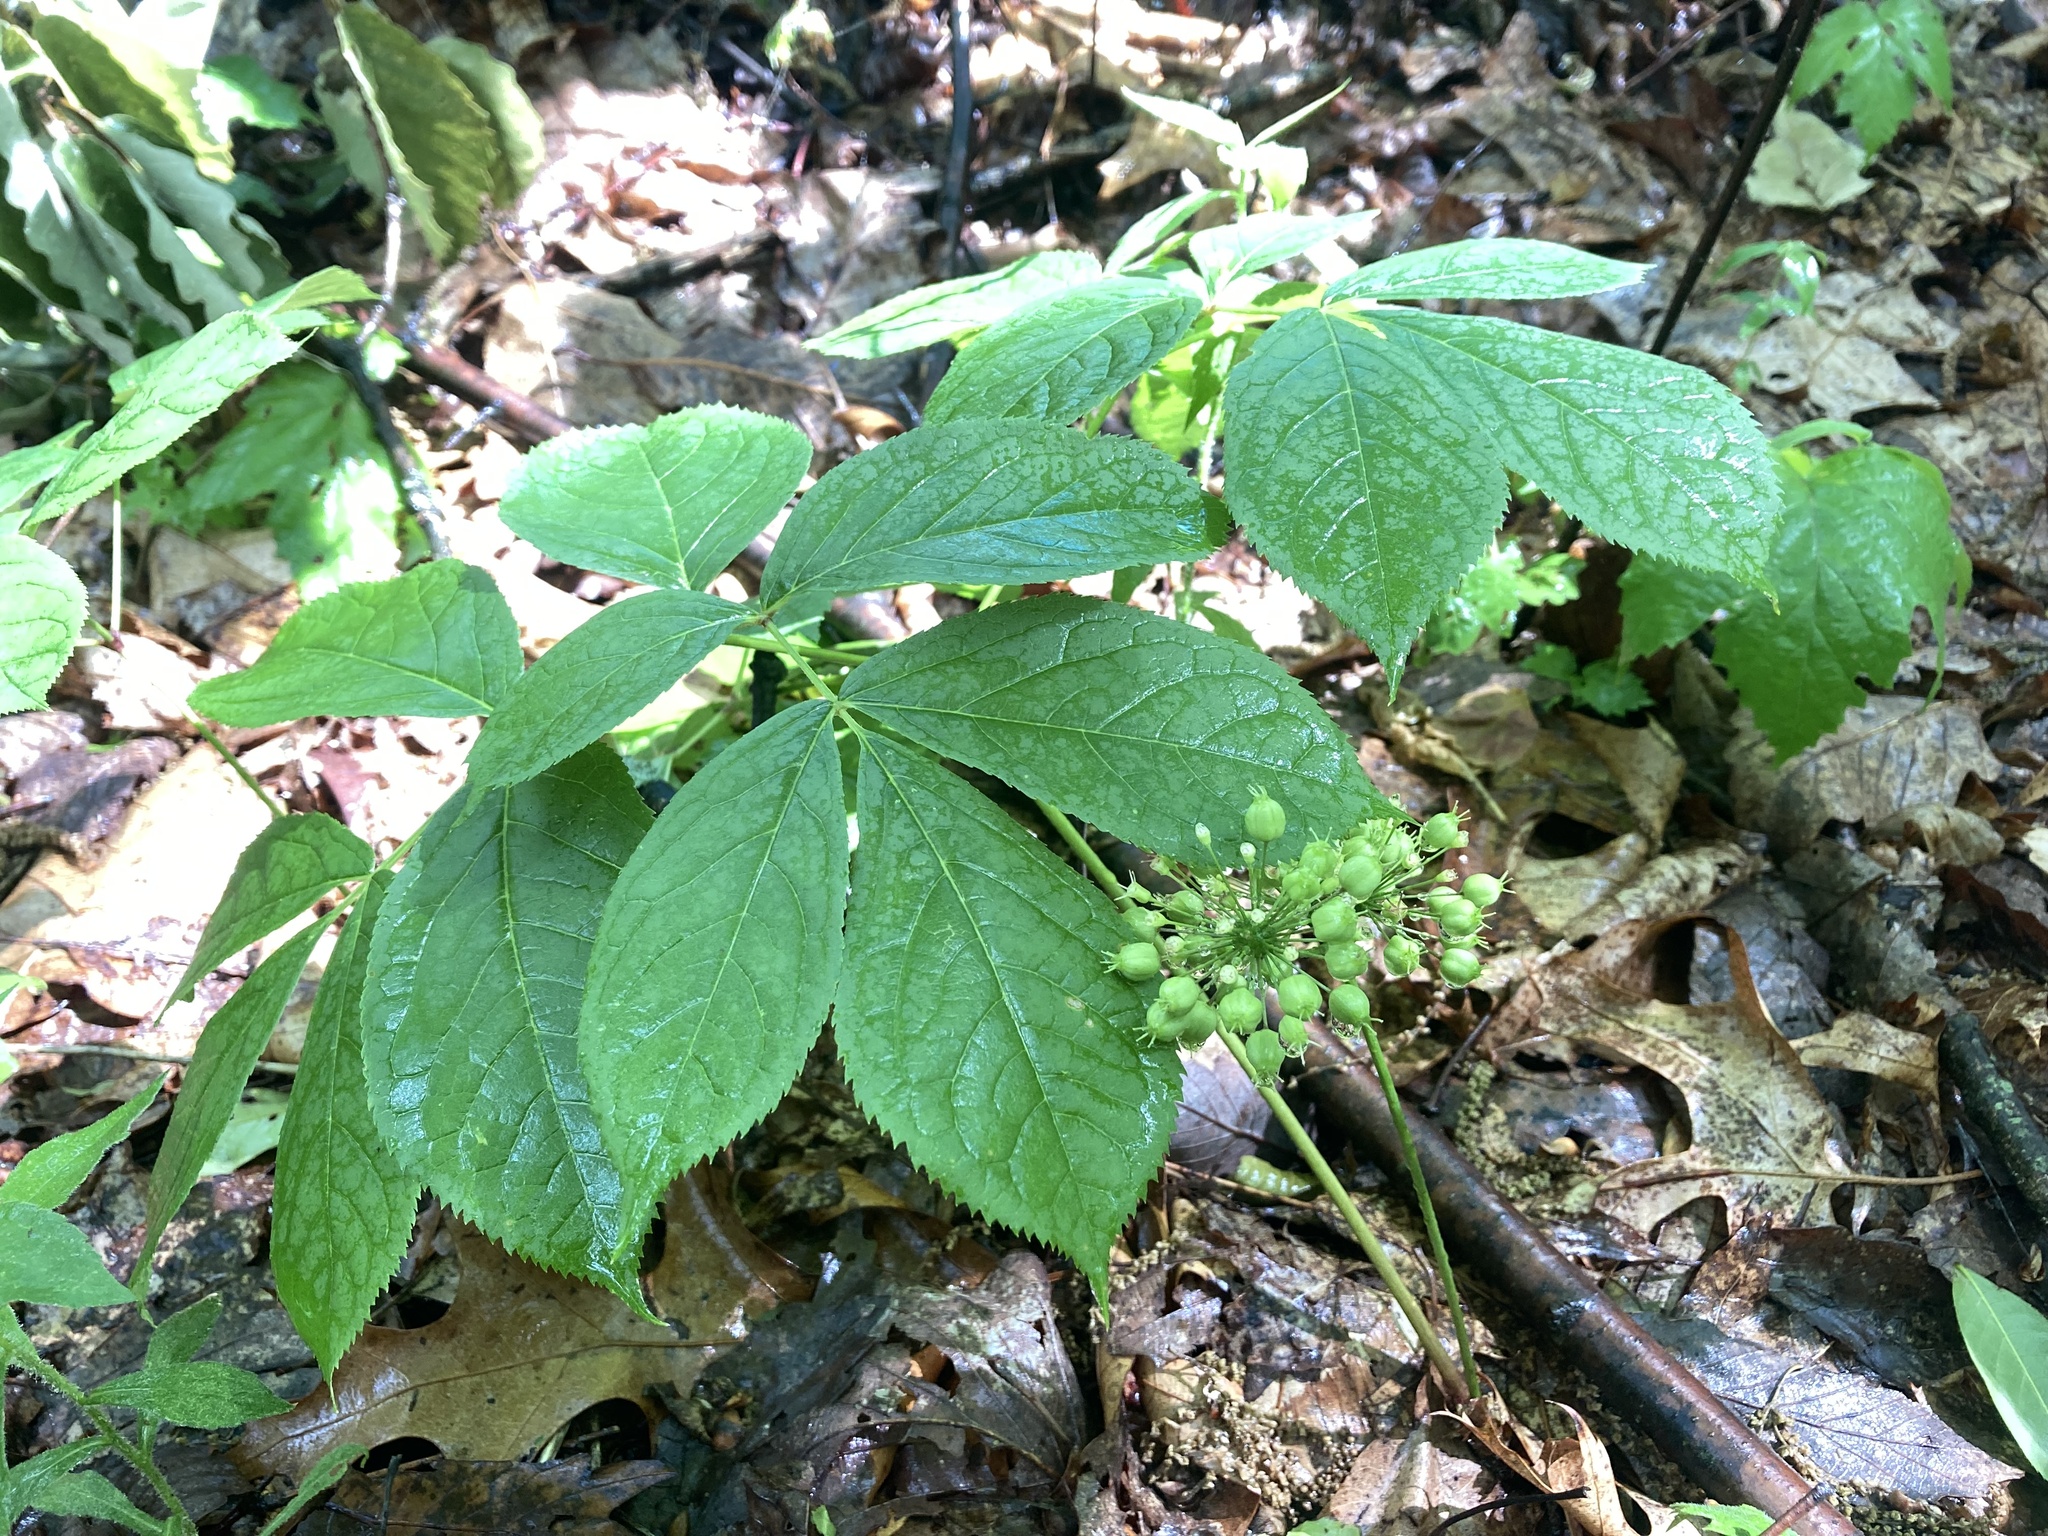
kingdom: Plantae
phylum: Tracheophyta
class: Magnoliopsida
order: Apiales
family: Araliaceae
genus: Aralia
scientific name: Aralia nudicaulis
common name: Wild sarsaparilla
